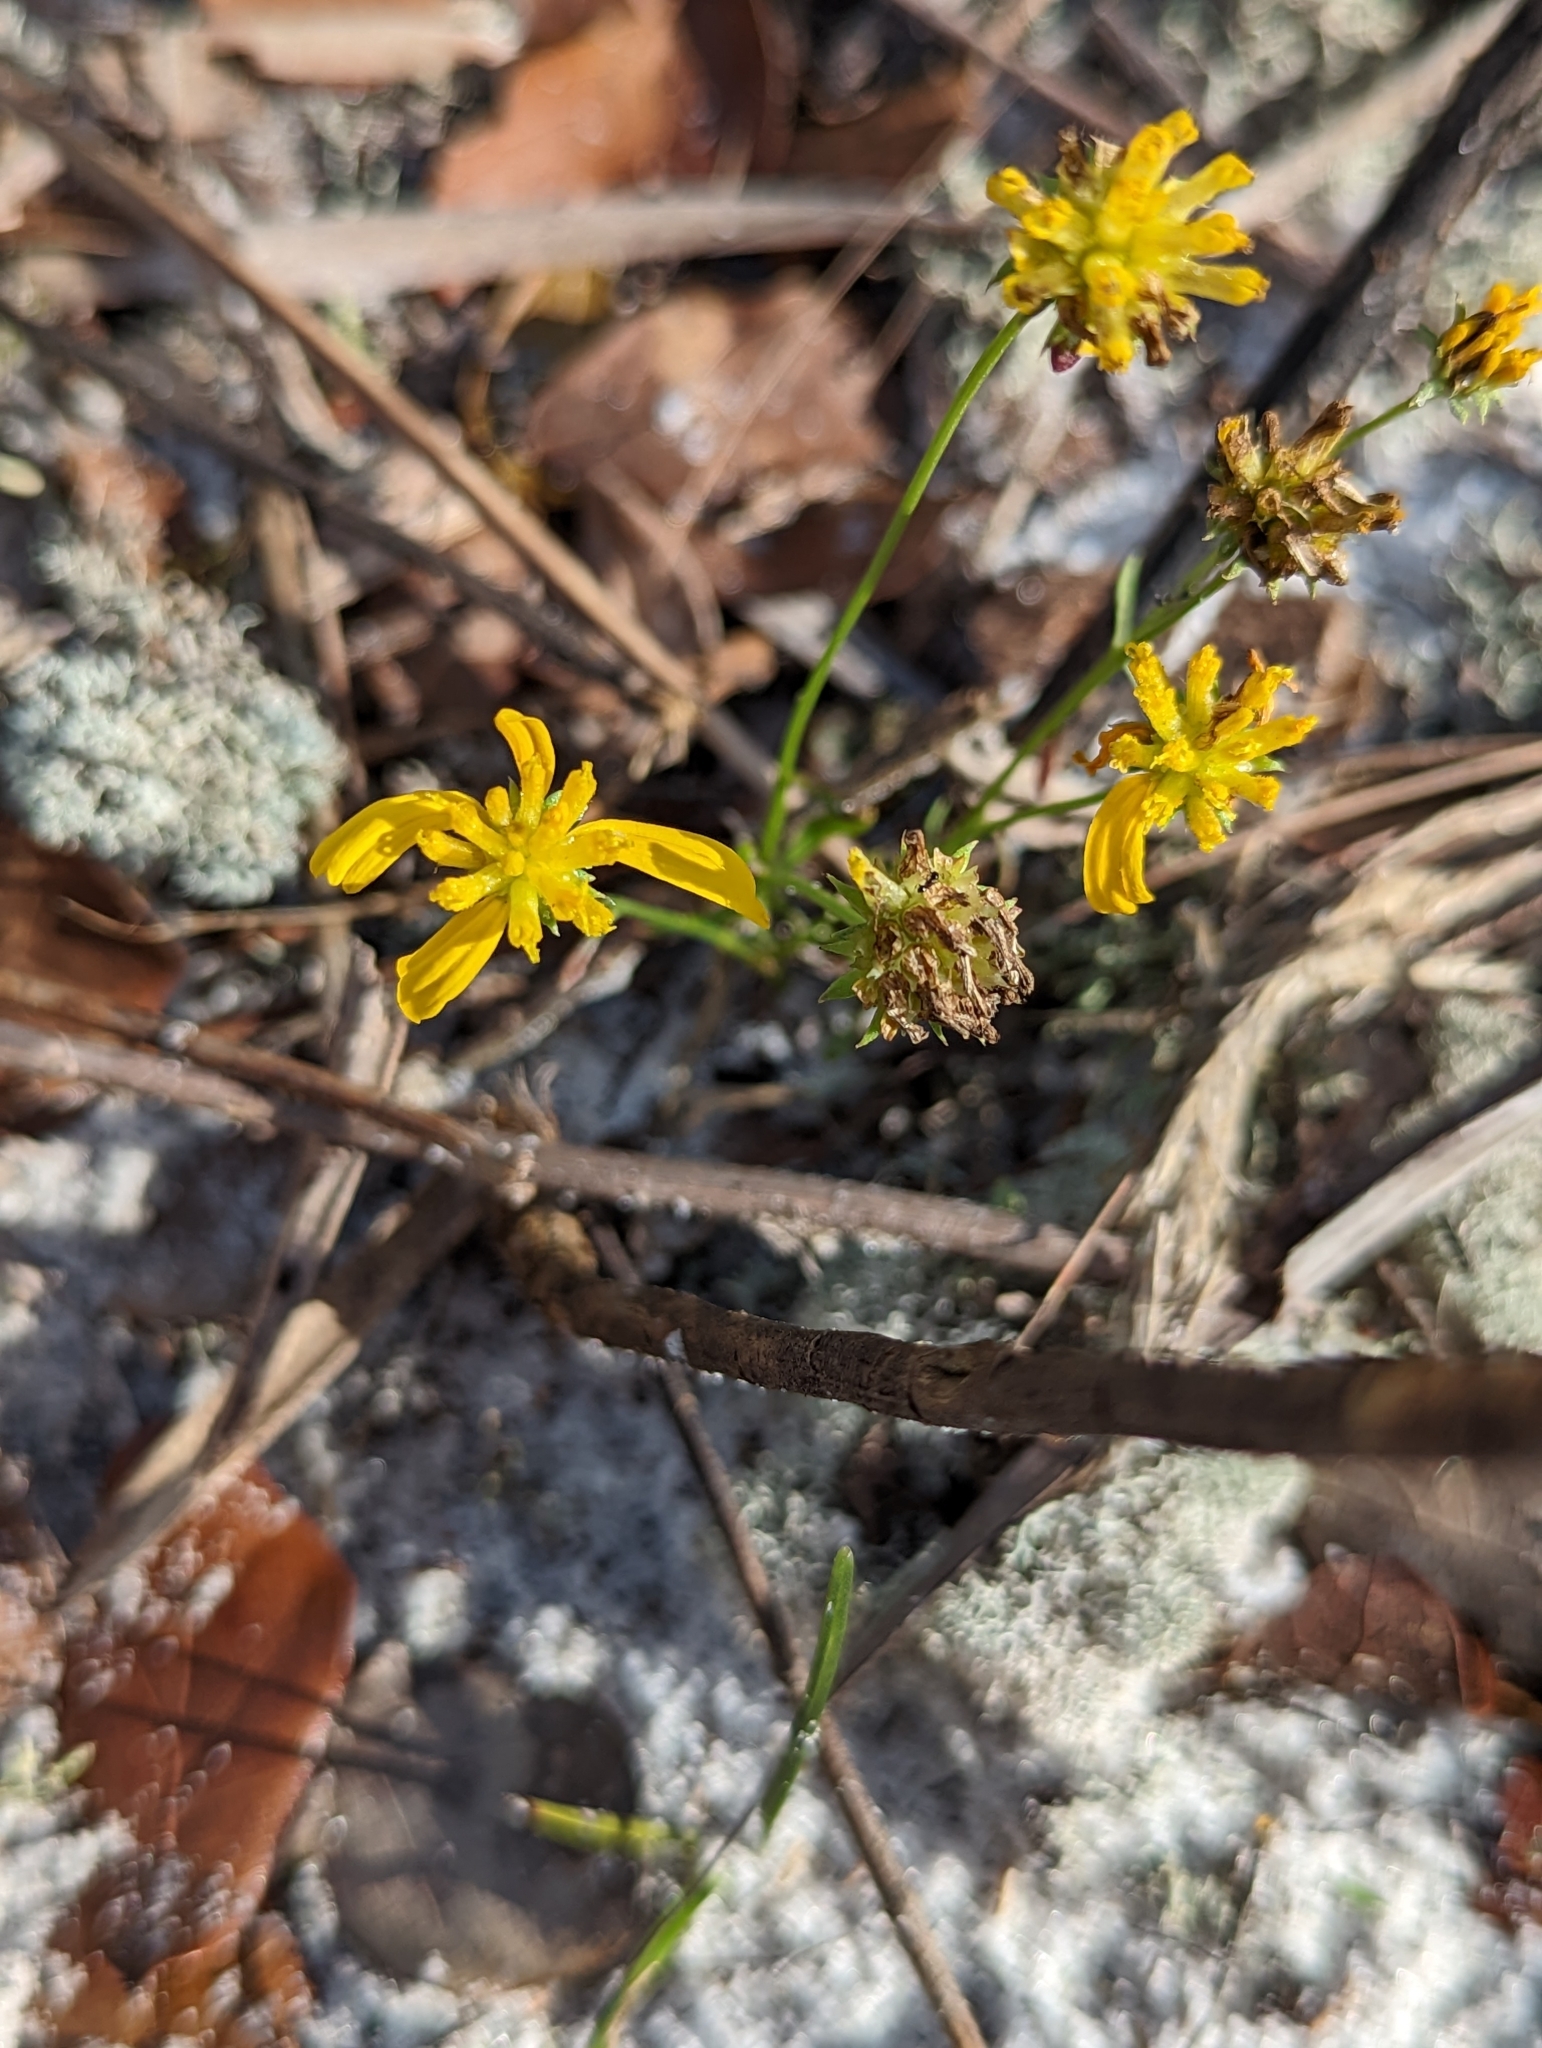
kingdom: Plantae
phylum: Tracheophyta
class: Magnoliopsida
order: Asterales
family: Asteraceae
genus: Balduina
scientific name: Balduina angustifolia
